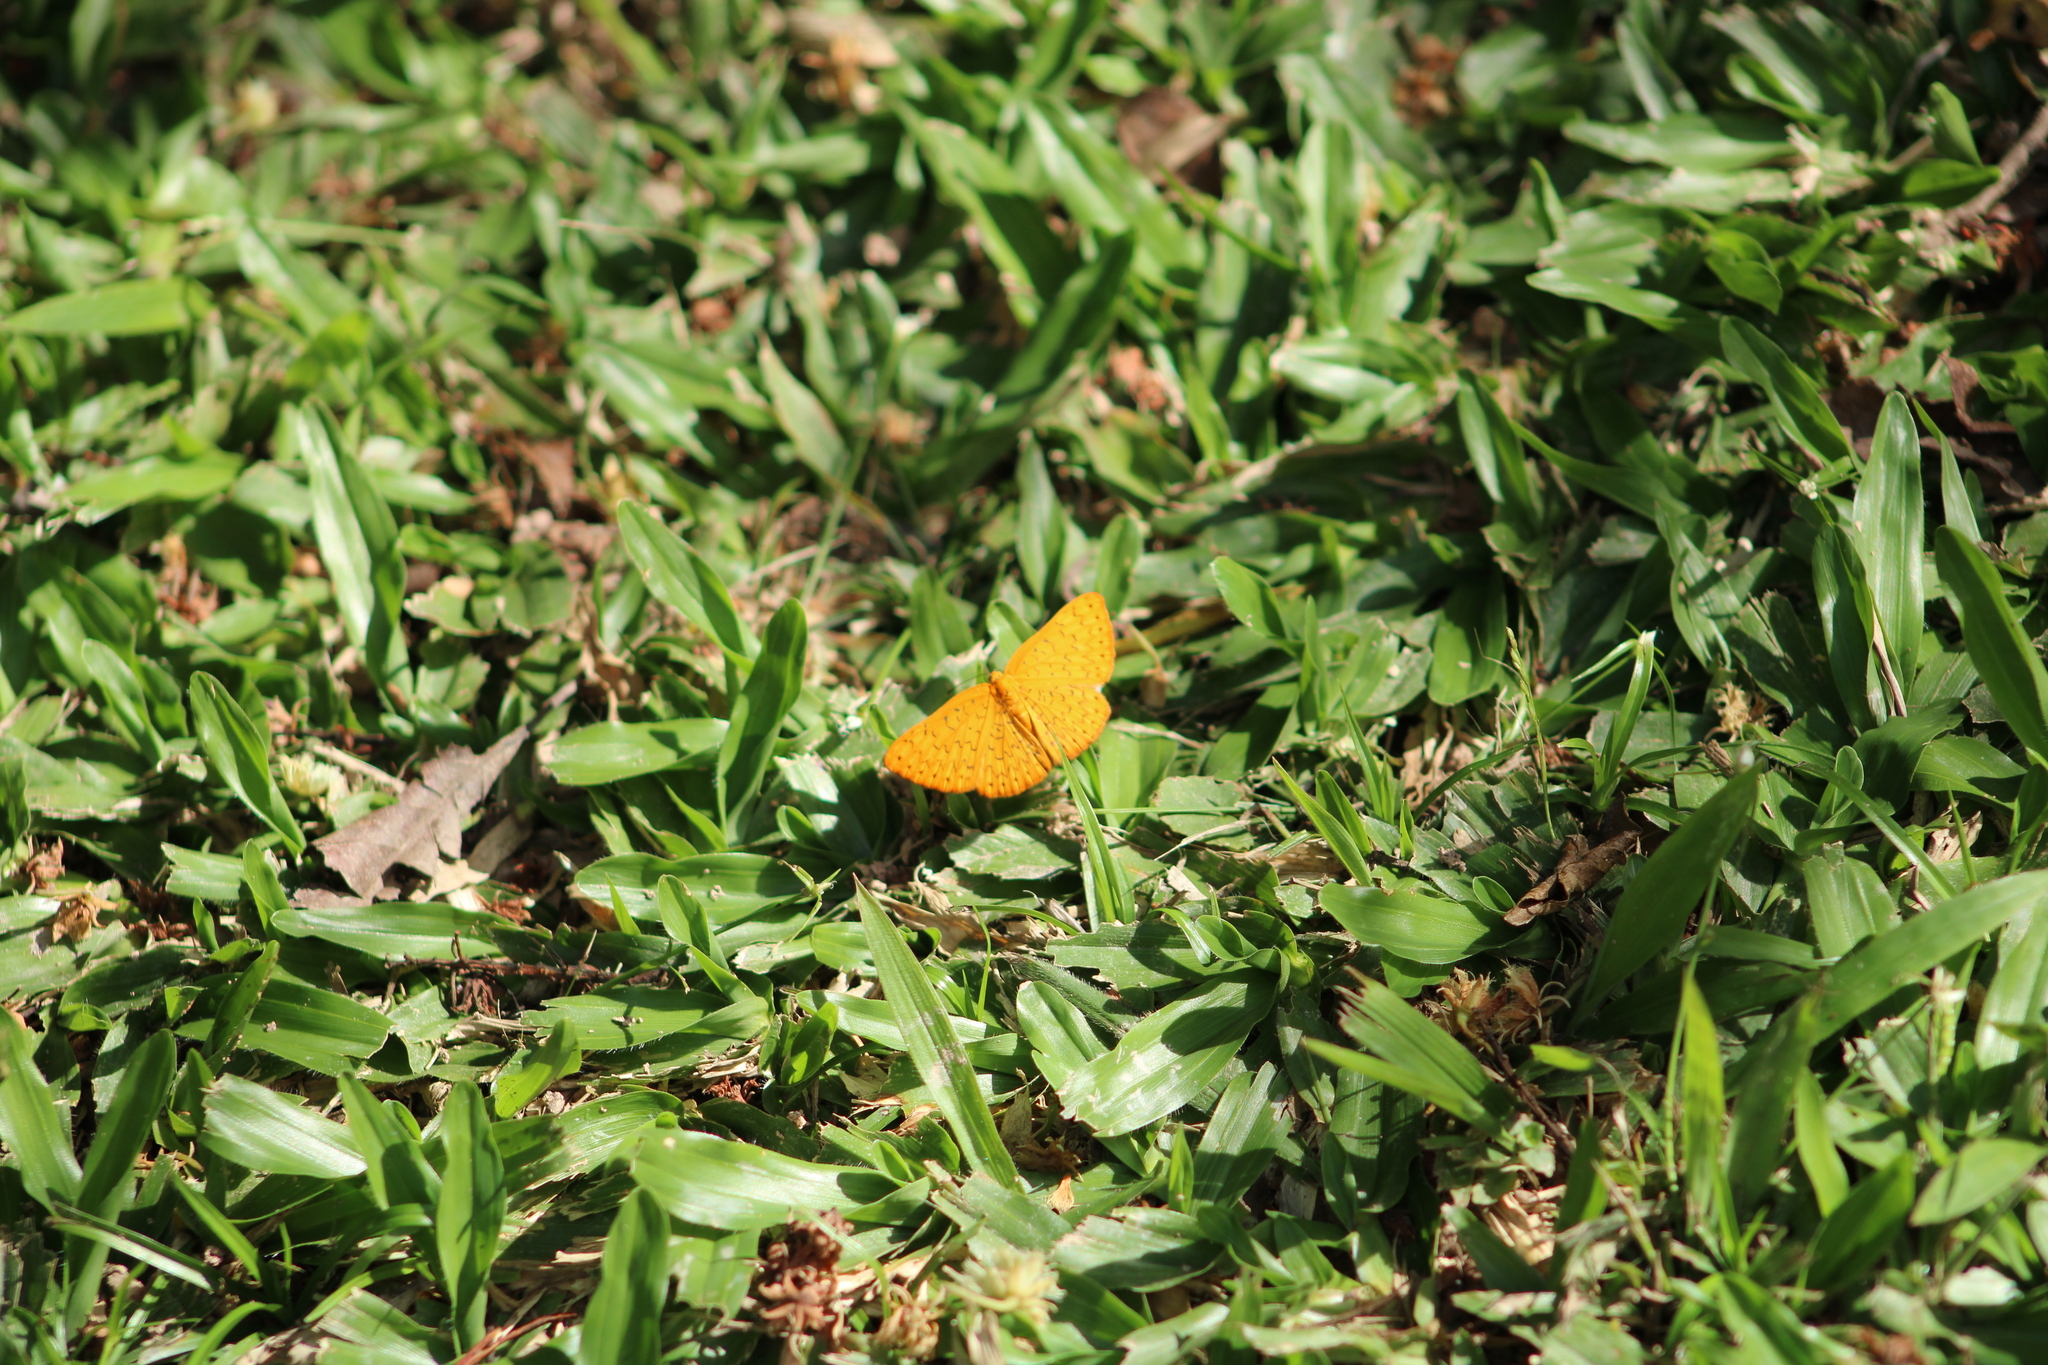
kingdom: Animalia
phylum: Arthropoda
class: Insecta
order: Lepidoptera
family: Lycaenidae
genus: Emesis
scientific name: Emesis fatima
